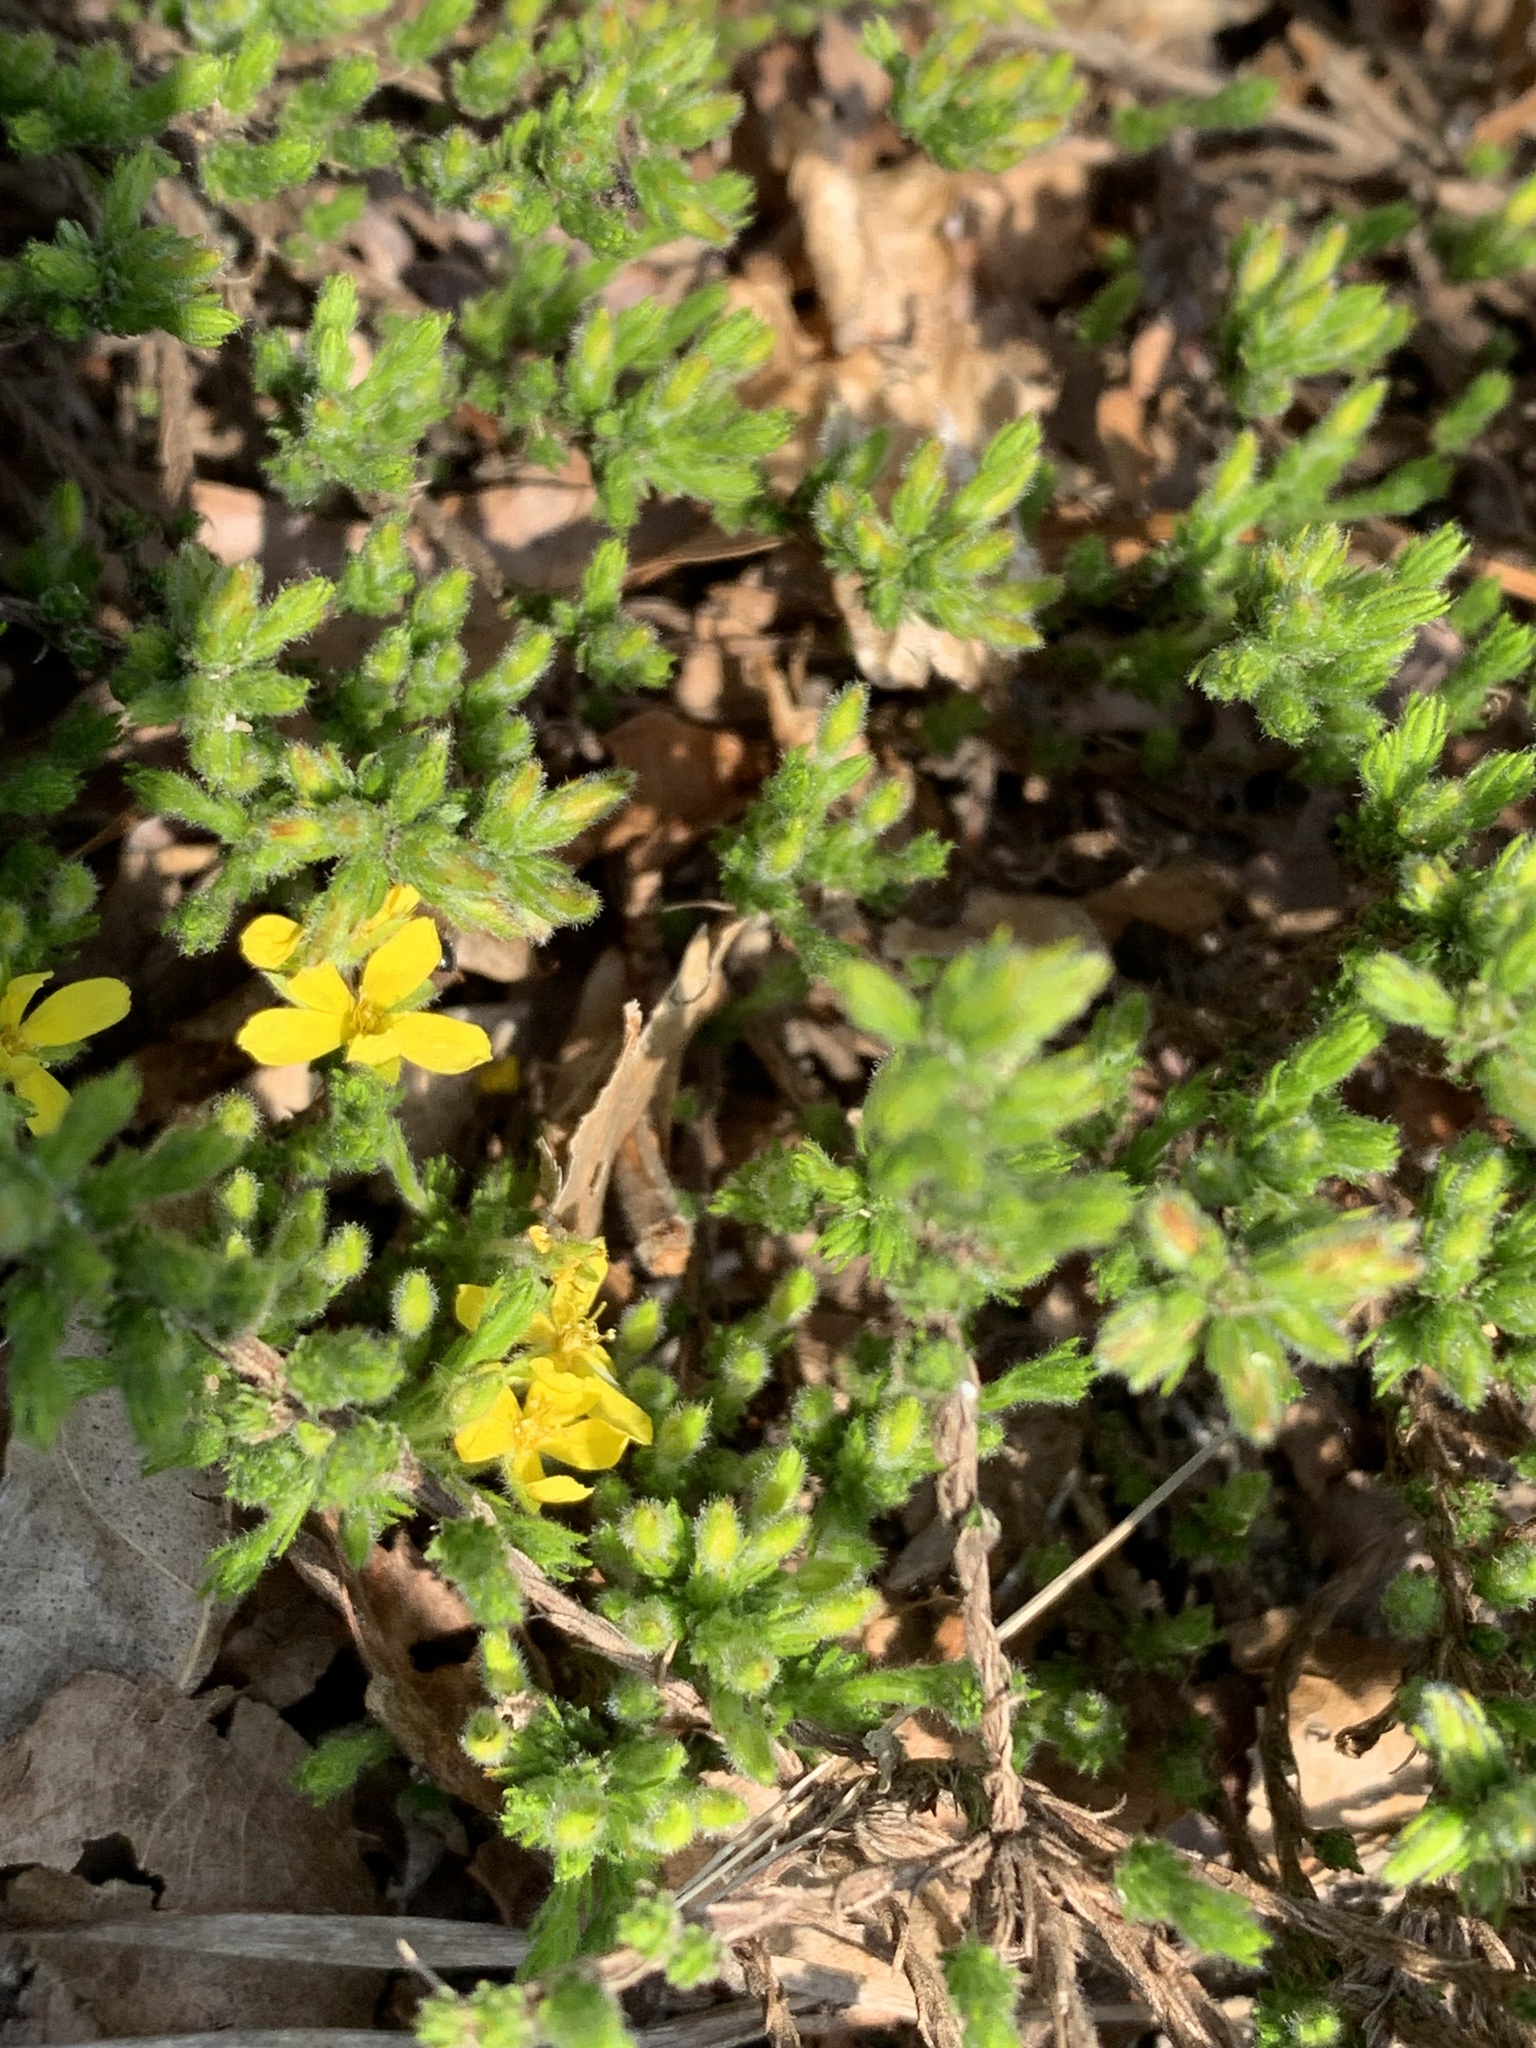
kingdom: Plantae
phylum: Tracheophyta
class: Magnoliopsida
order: Malvales
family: Cistaceae
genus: Hudsonia
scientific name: Hudsonia ericoides
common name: Golden-heather
